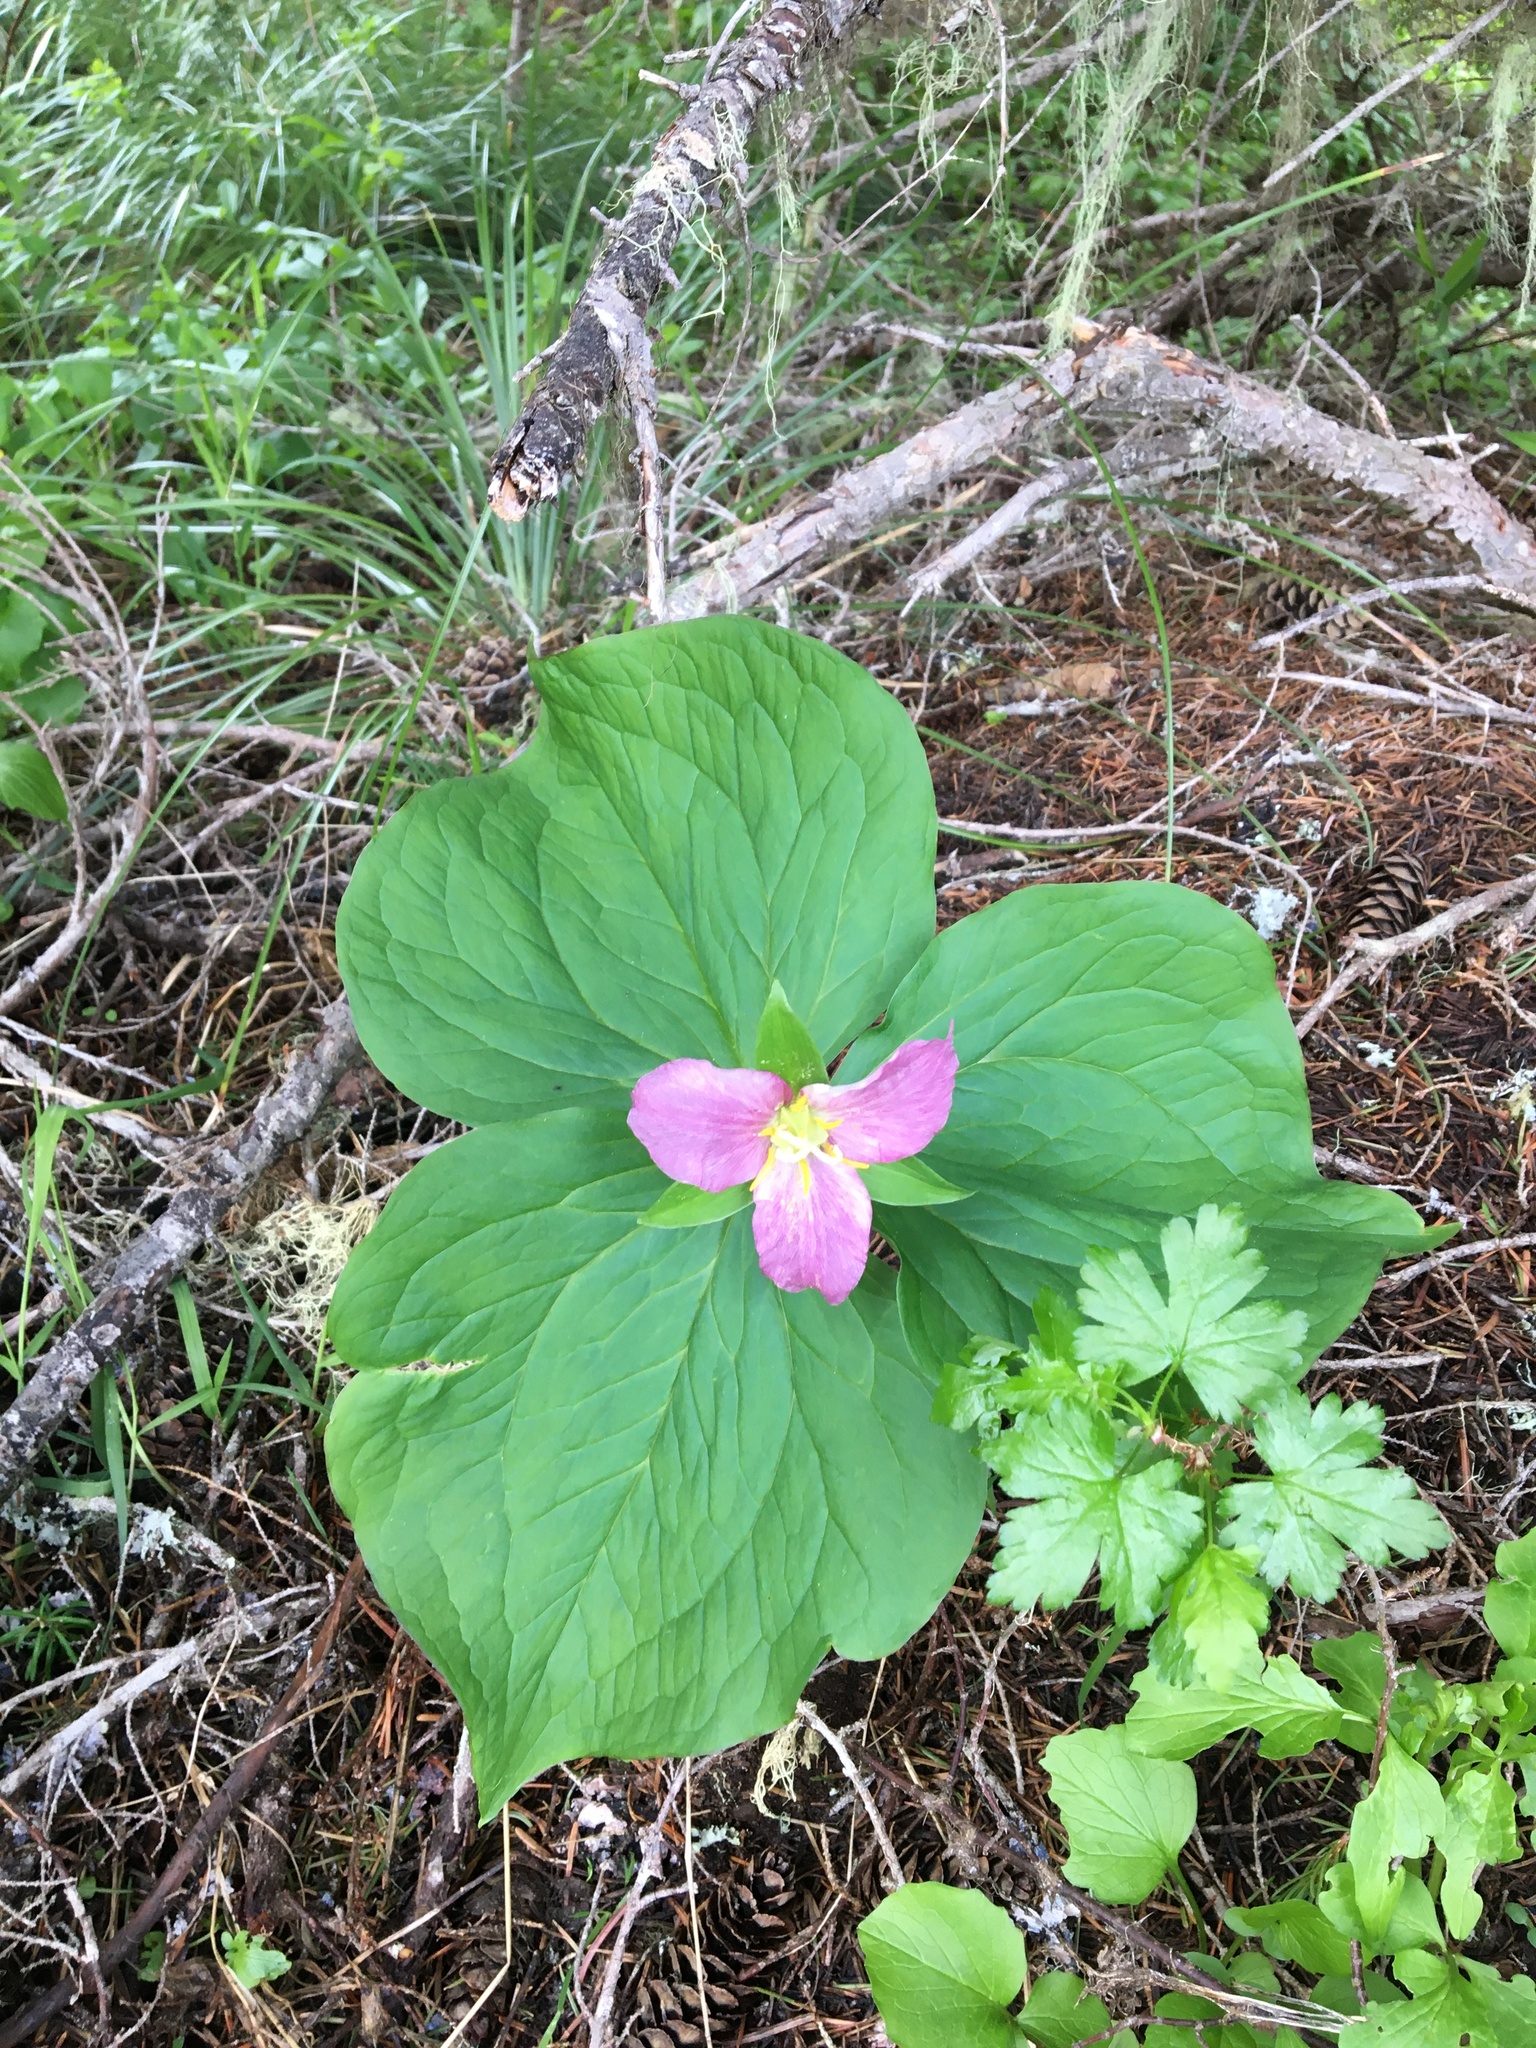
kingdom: Plantae
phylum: Tracheophyta
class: Liliopsida
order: Liliales
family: Melanthiaceae
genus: Trillium
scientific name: Trillium ovatum
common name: Pacific trillium
